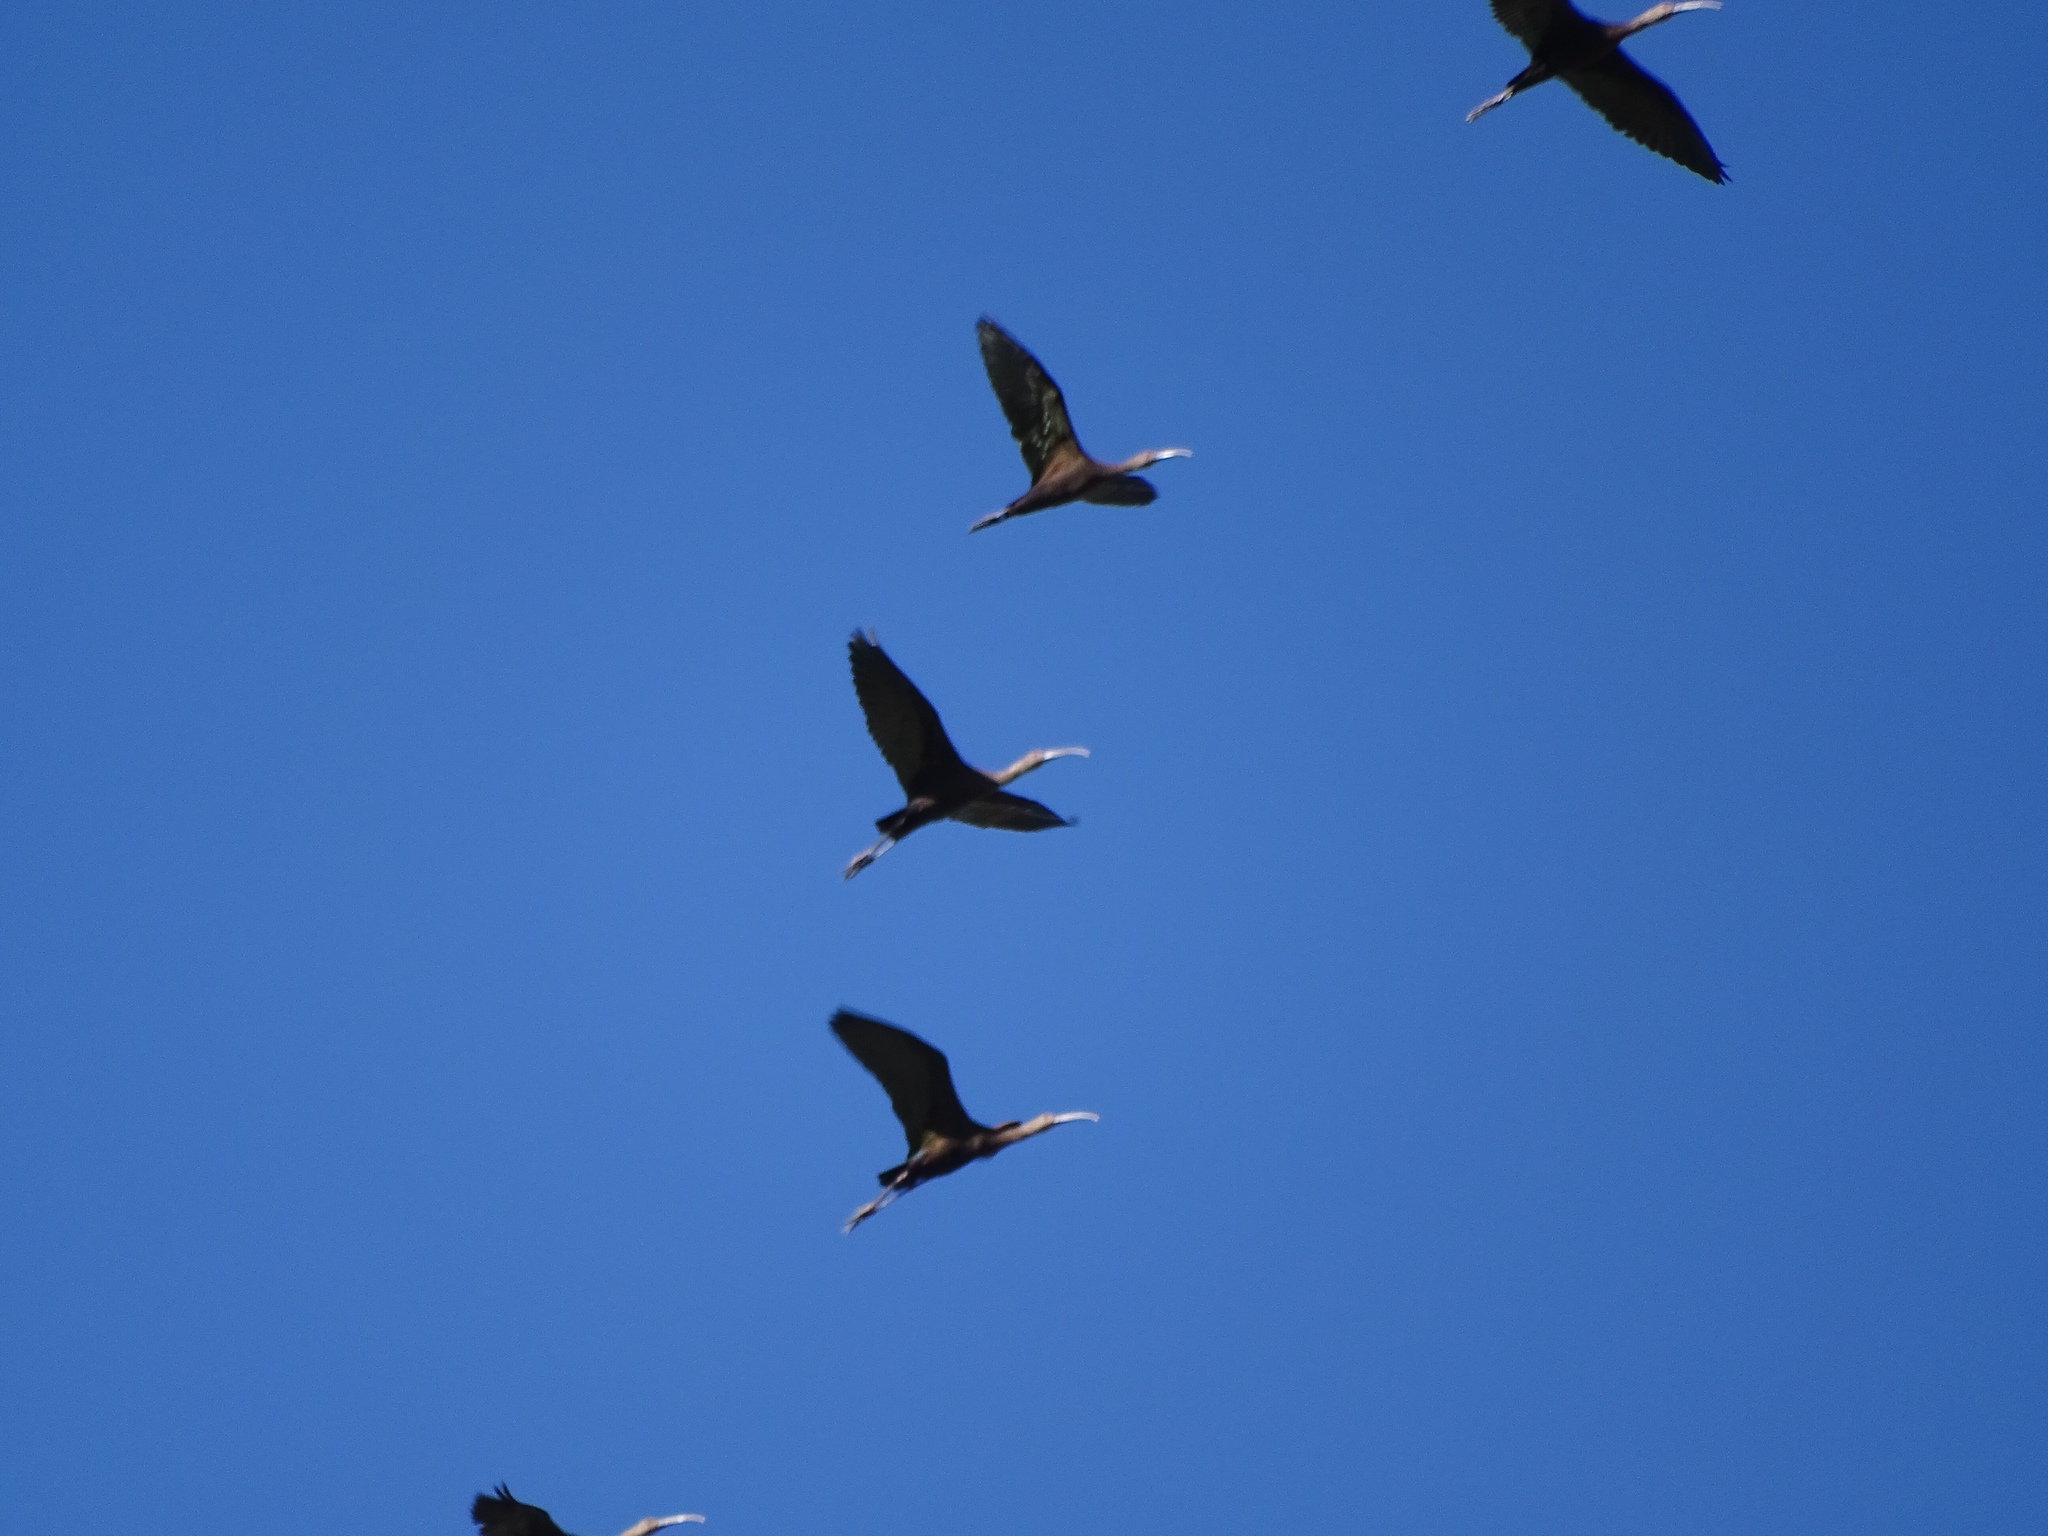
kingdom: Animalia
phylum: Chordata
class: Aves
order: Pelecaniformes
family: Threskiornithidae
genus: Plegadis
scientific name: Plegadis chihi
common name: White-faced ibis
